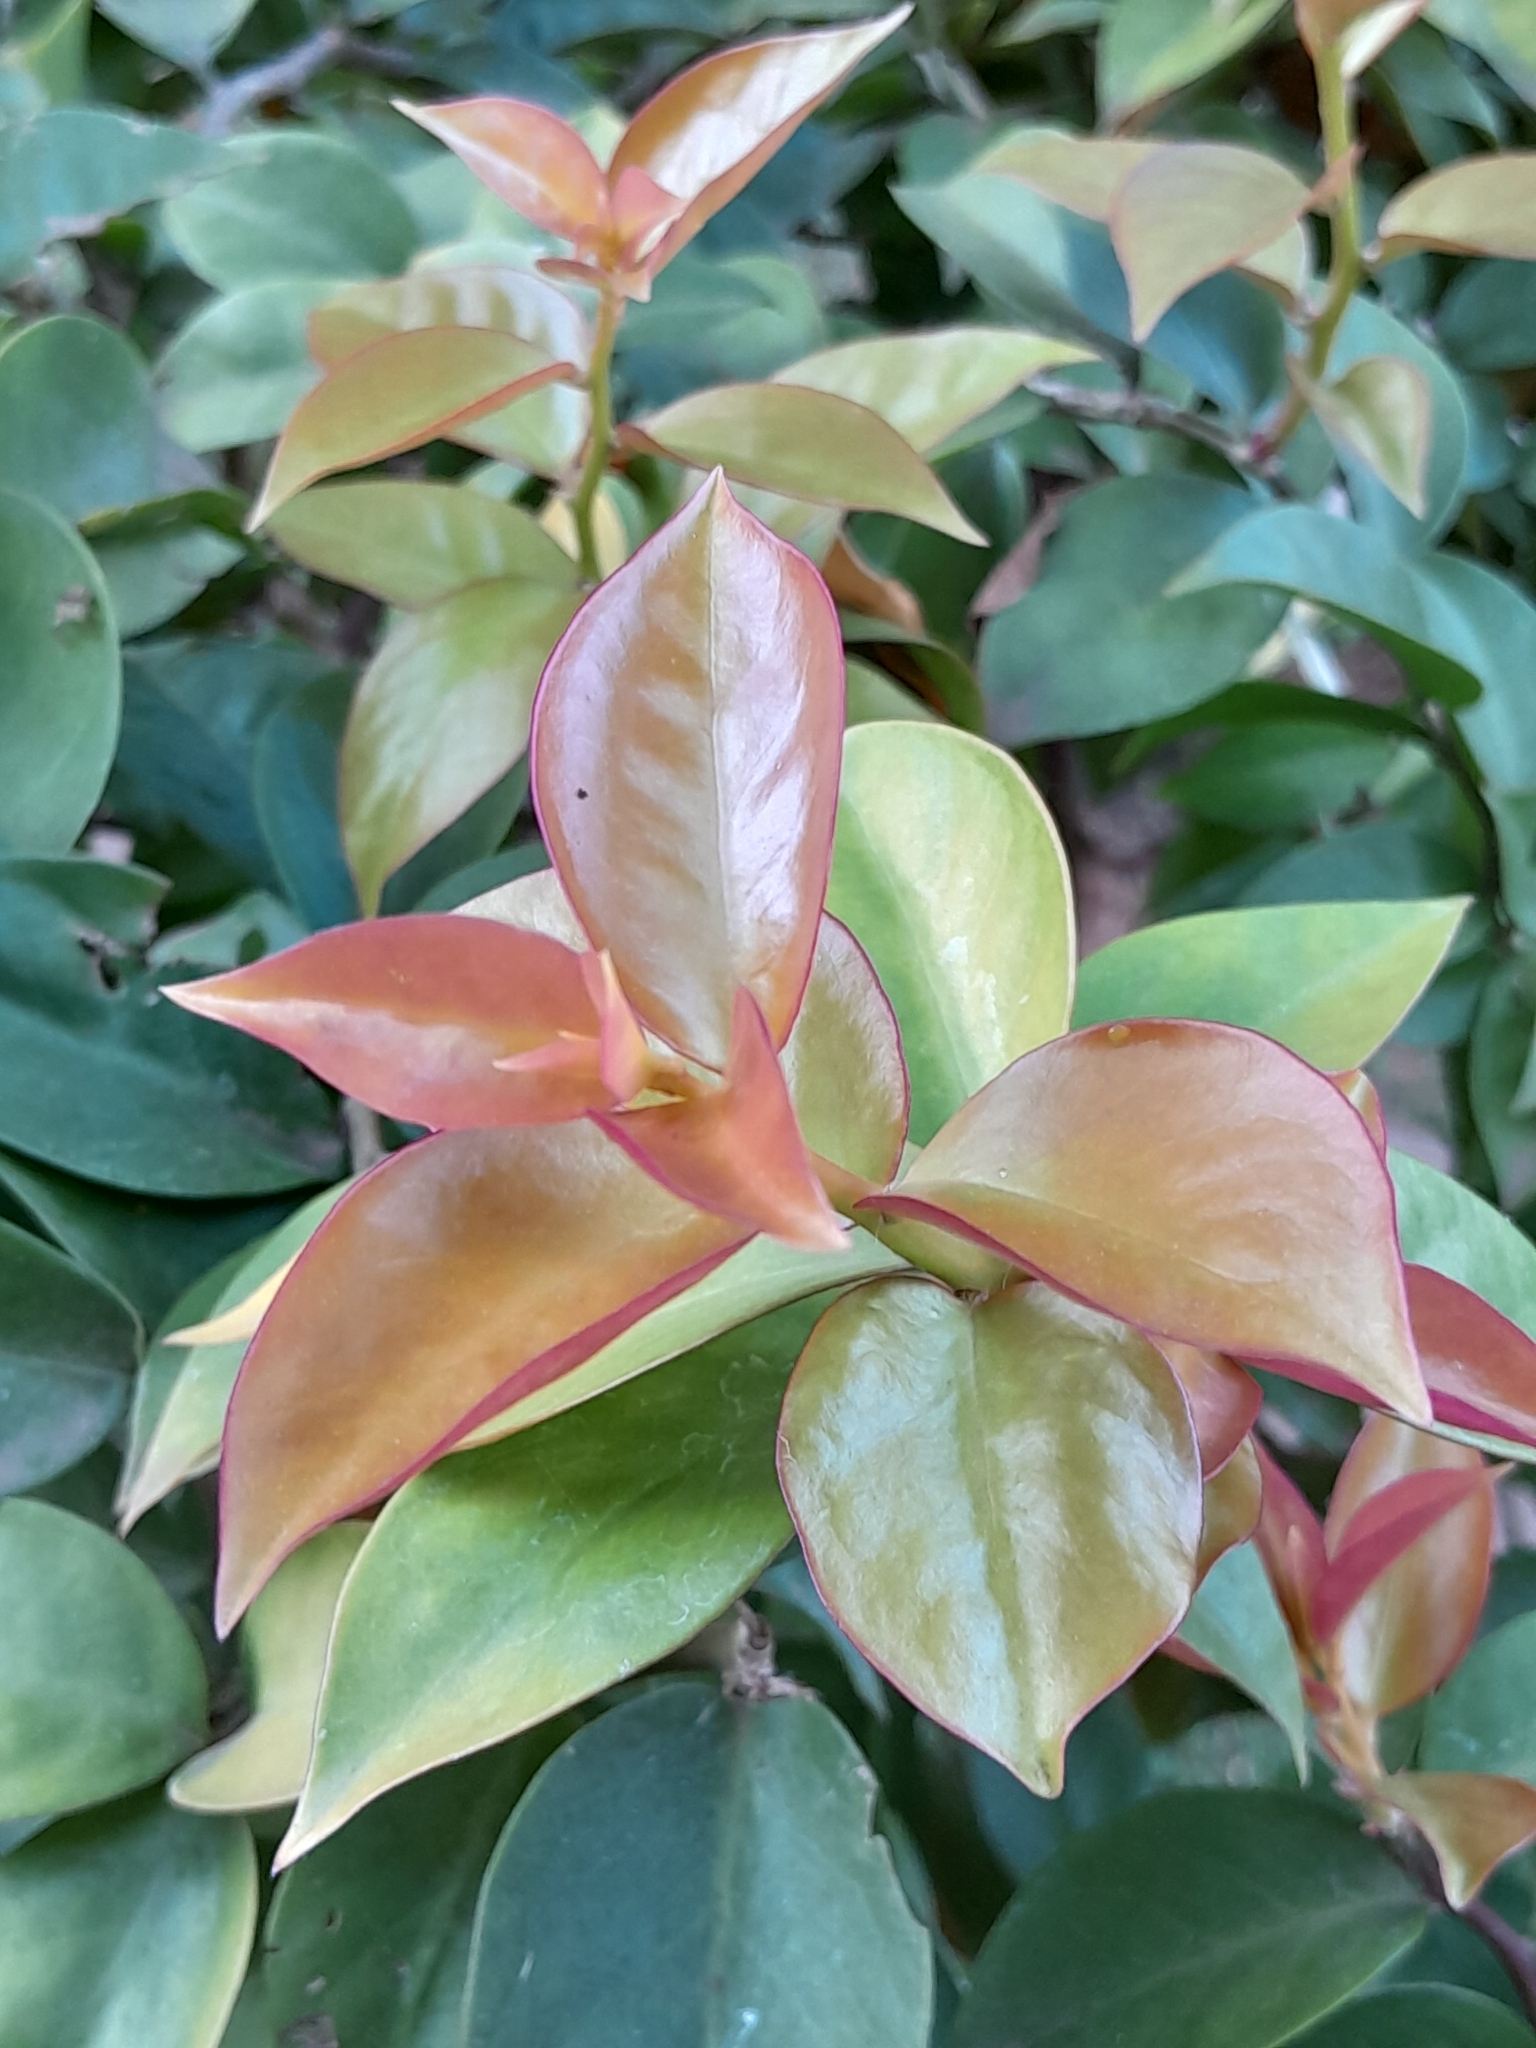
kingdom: Plantae
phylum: Tracheophyta
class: Magnoliopsida
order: Caryophyllales
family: Cactaceae
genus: Pereskia
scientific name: Pereskia aculeata
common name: Barbados gooseberry
